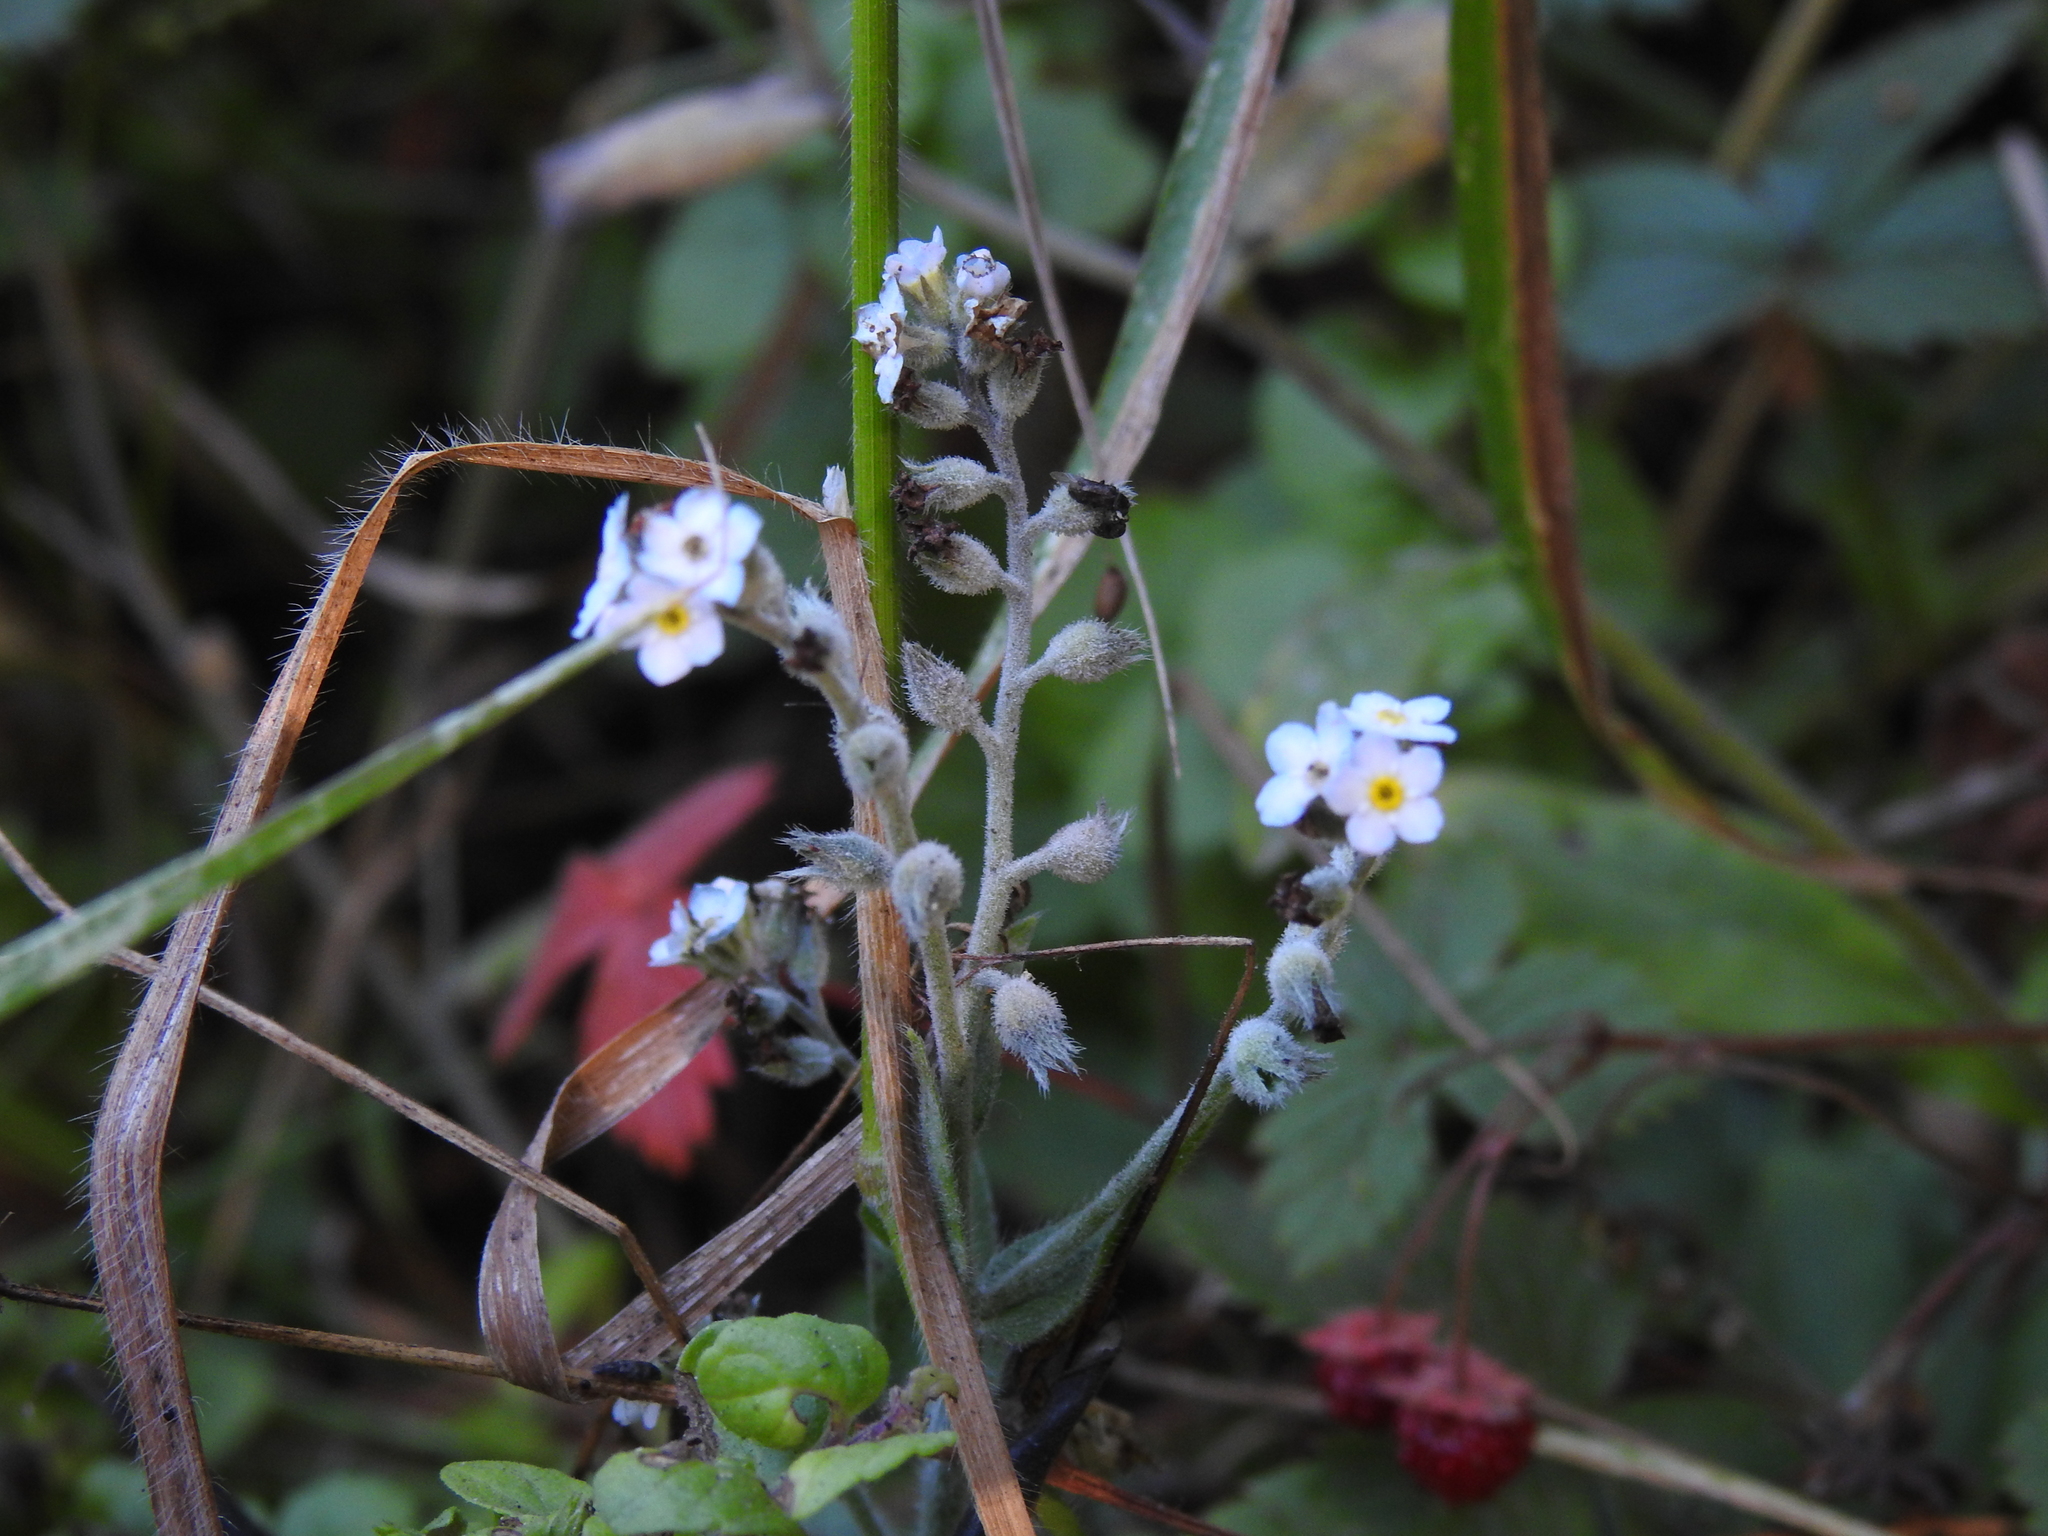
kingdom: Plantae
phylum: Tracheophyta
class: Magnoliopsida
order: Boraginales
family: Boraginaceae
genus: Myosotis
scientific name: Myosotis latifolia
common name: Broadleaf forget-me-not
